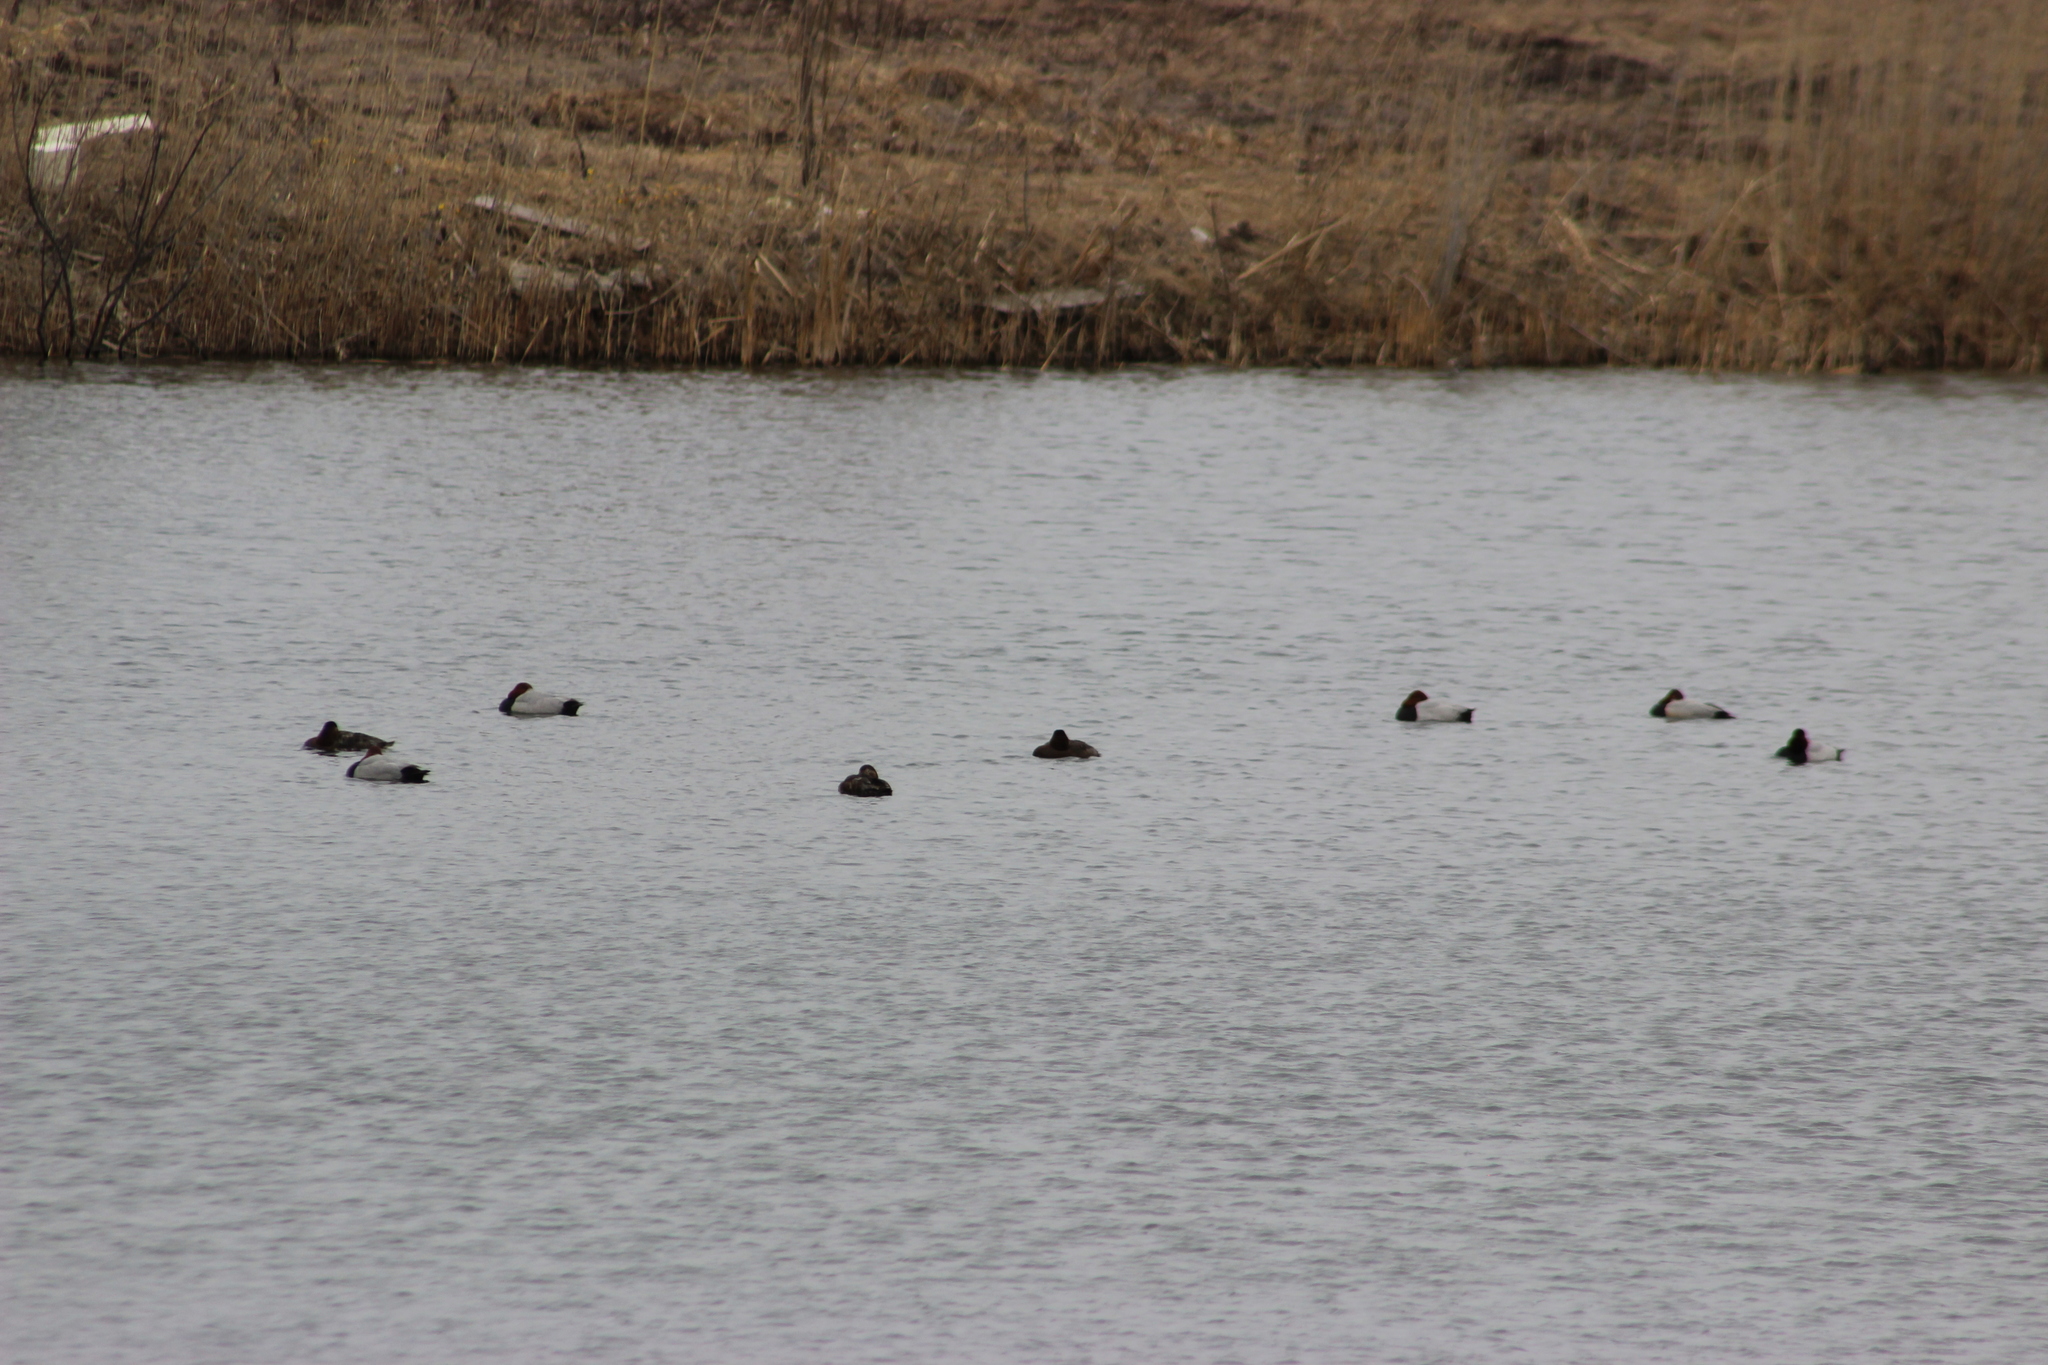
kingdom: Animalia
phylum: Chordata
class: Aves
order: Anseriformes
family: Anatidae
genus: Aythya
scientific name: Aythya ferina
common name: Common pochard
